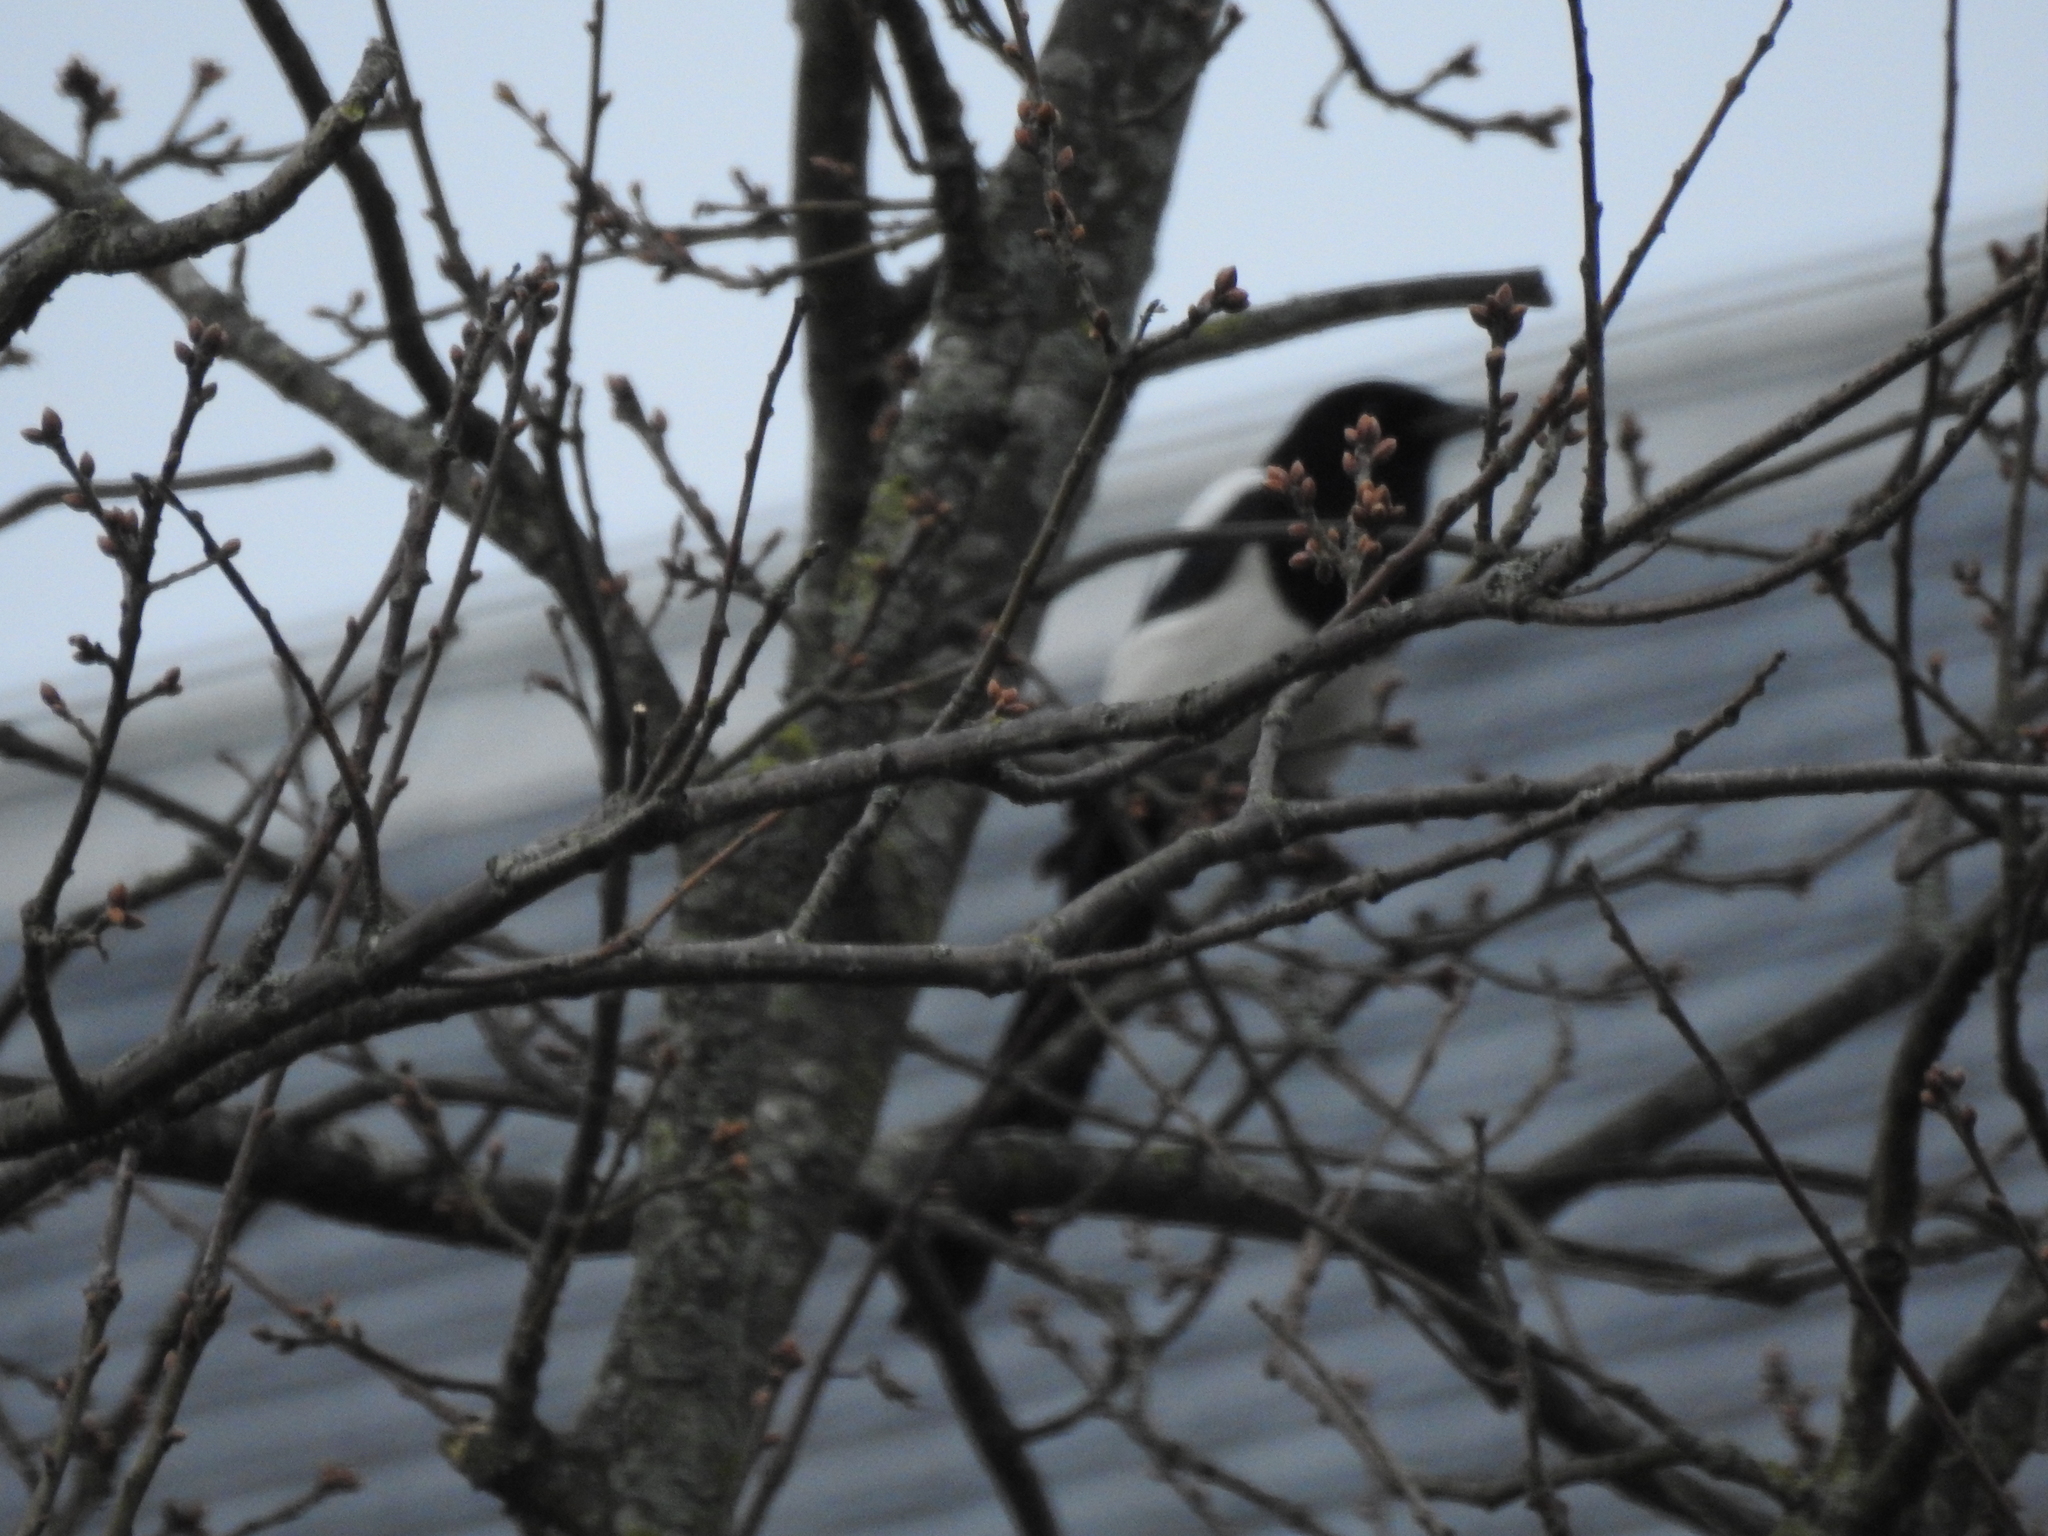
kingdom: Animalia
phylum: Chordata
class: Aves
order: Passeriformes
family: Corvidae
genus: Pica
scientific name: Pica pica
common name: Eurasian magpie
